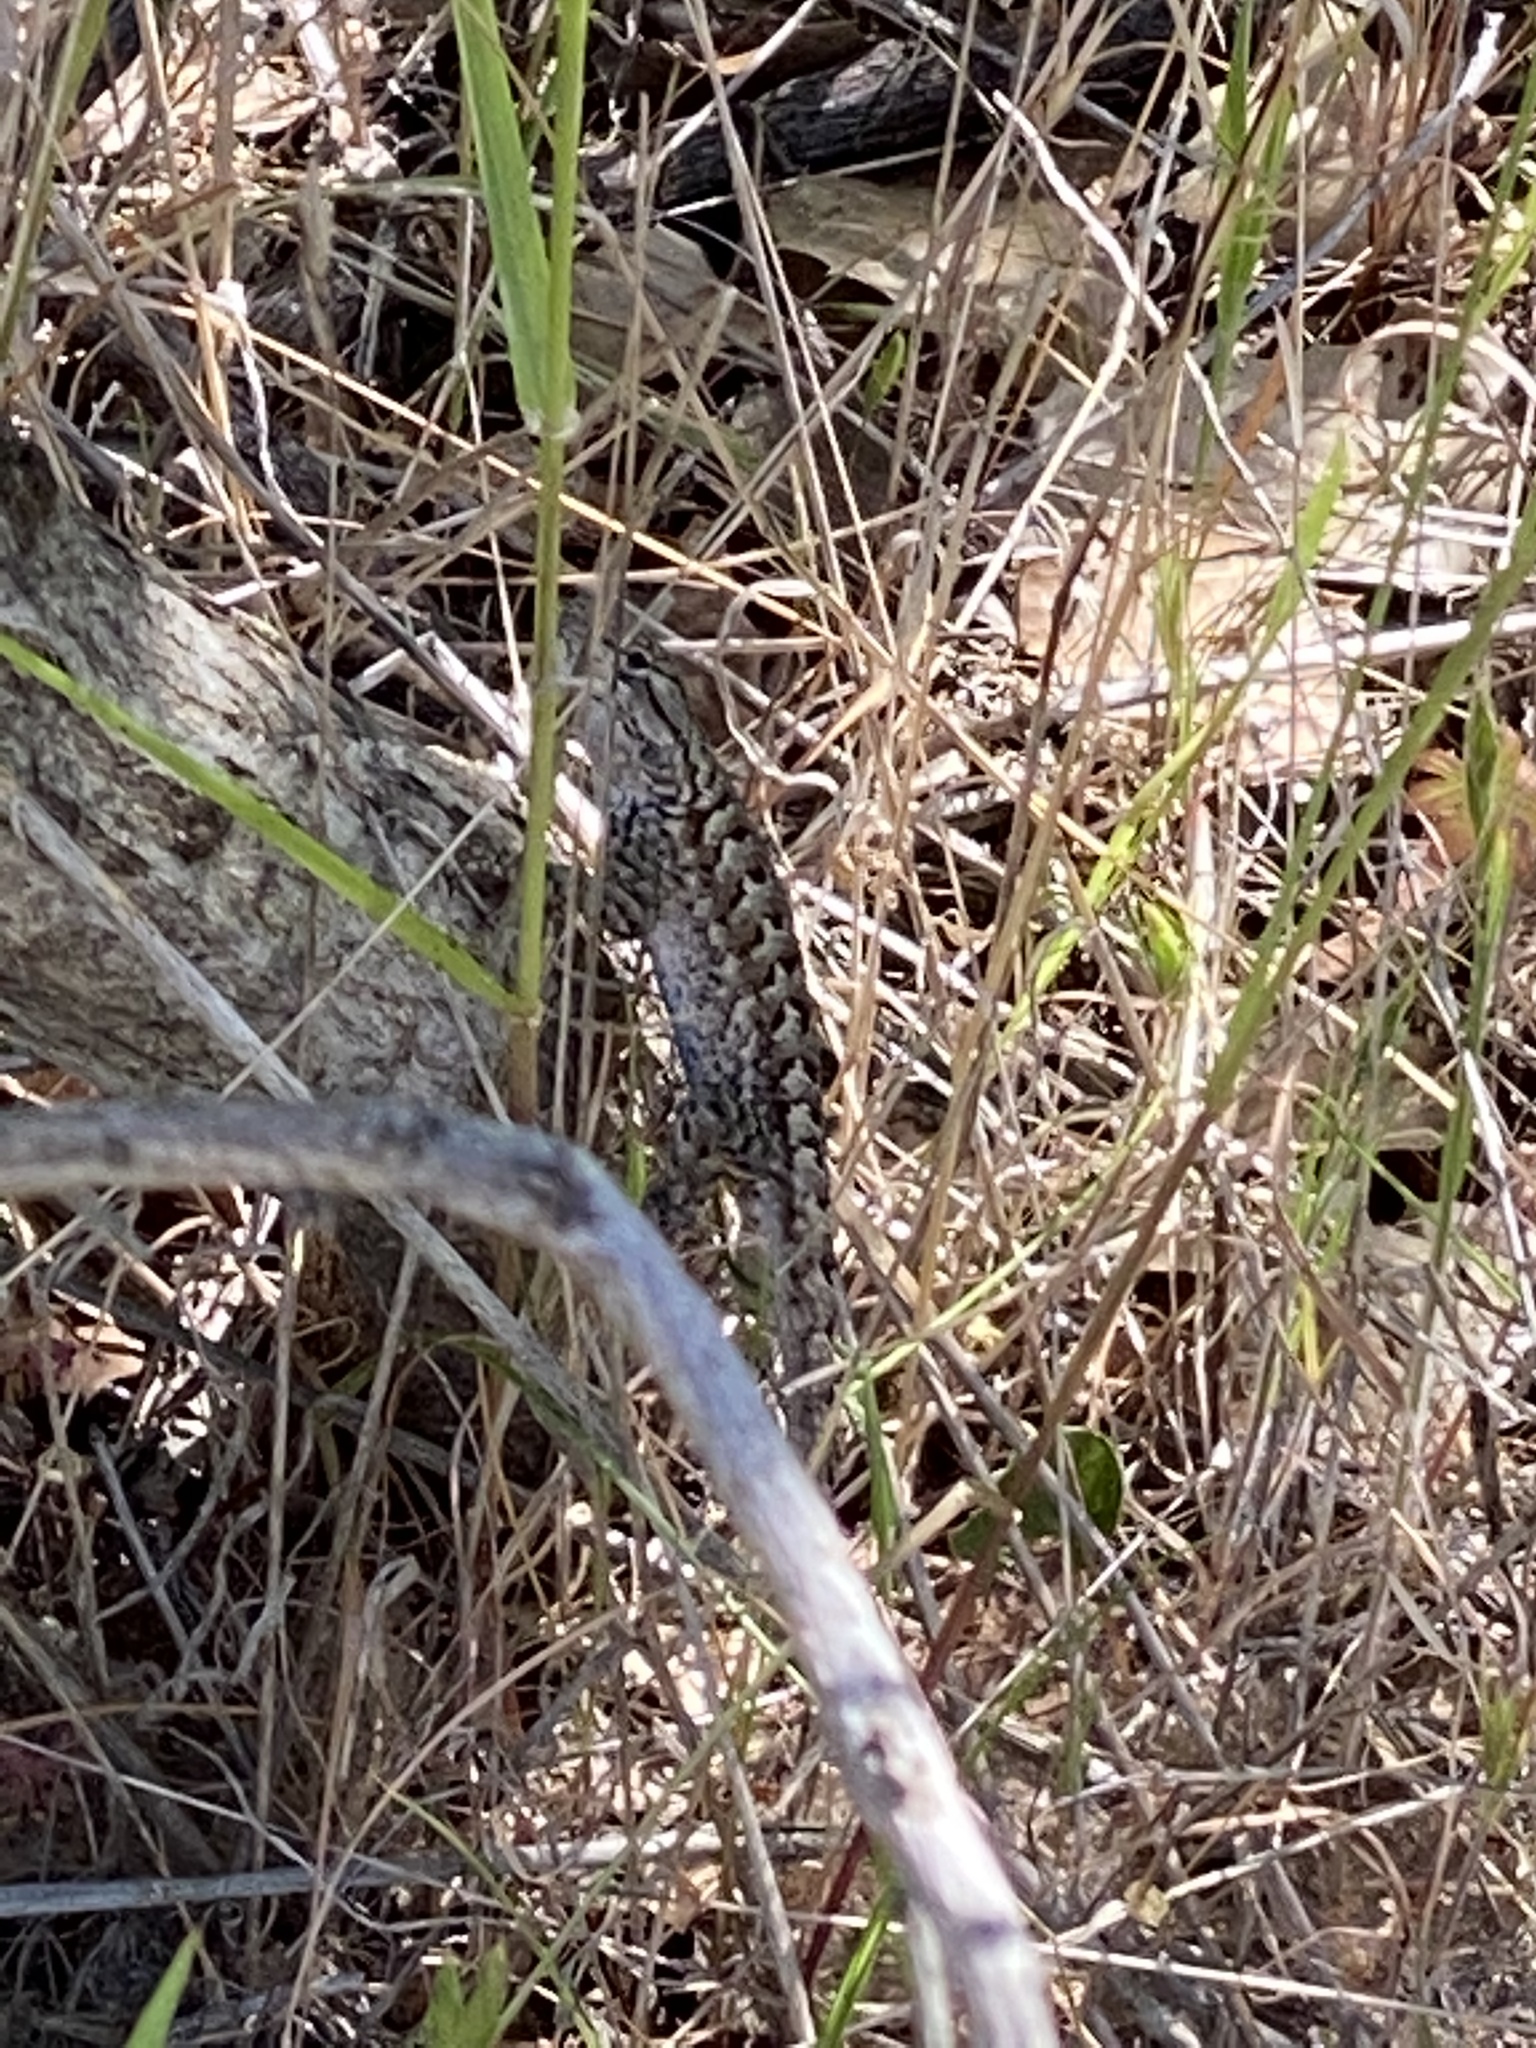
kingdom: Animalia
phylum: Chordata
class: Squamata
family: Phrynosomatidae
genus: Sceloporus
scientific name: Sceloporus occidentalis
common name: Western fence lizard
